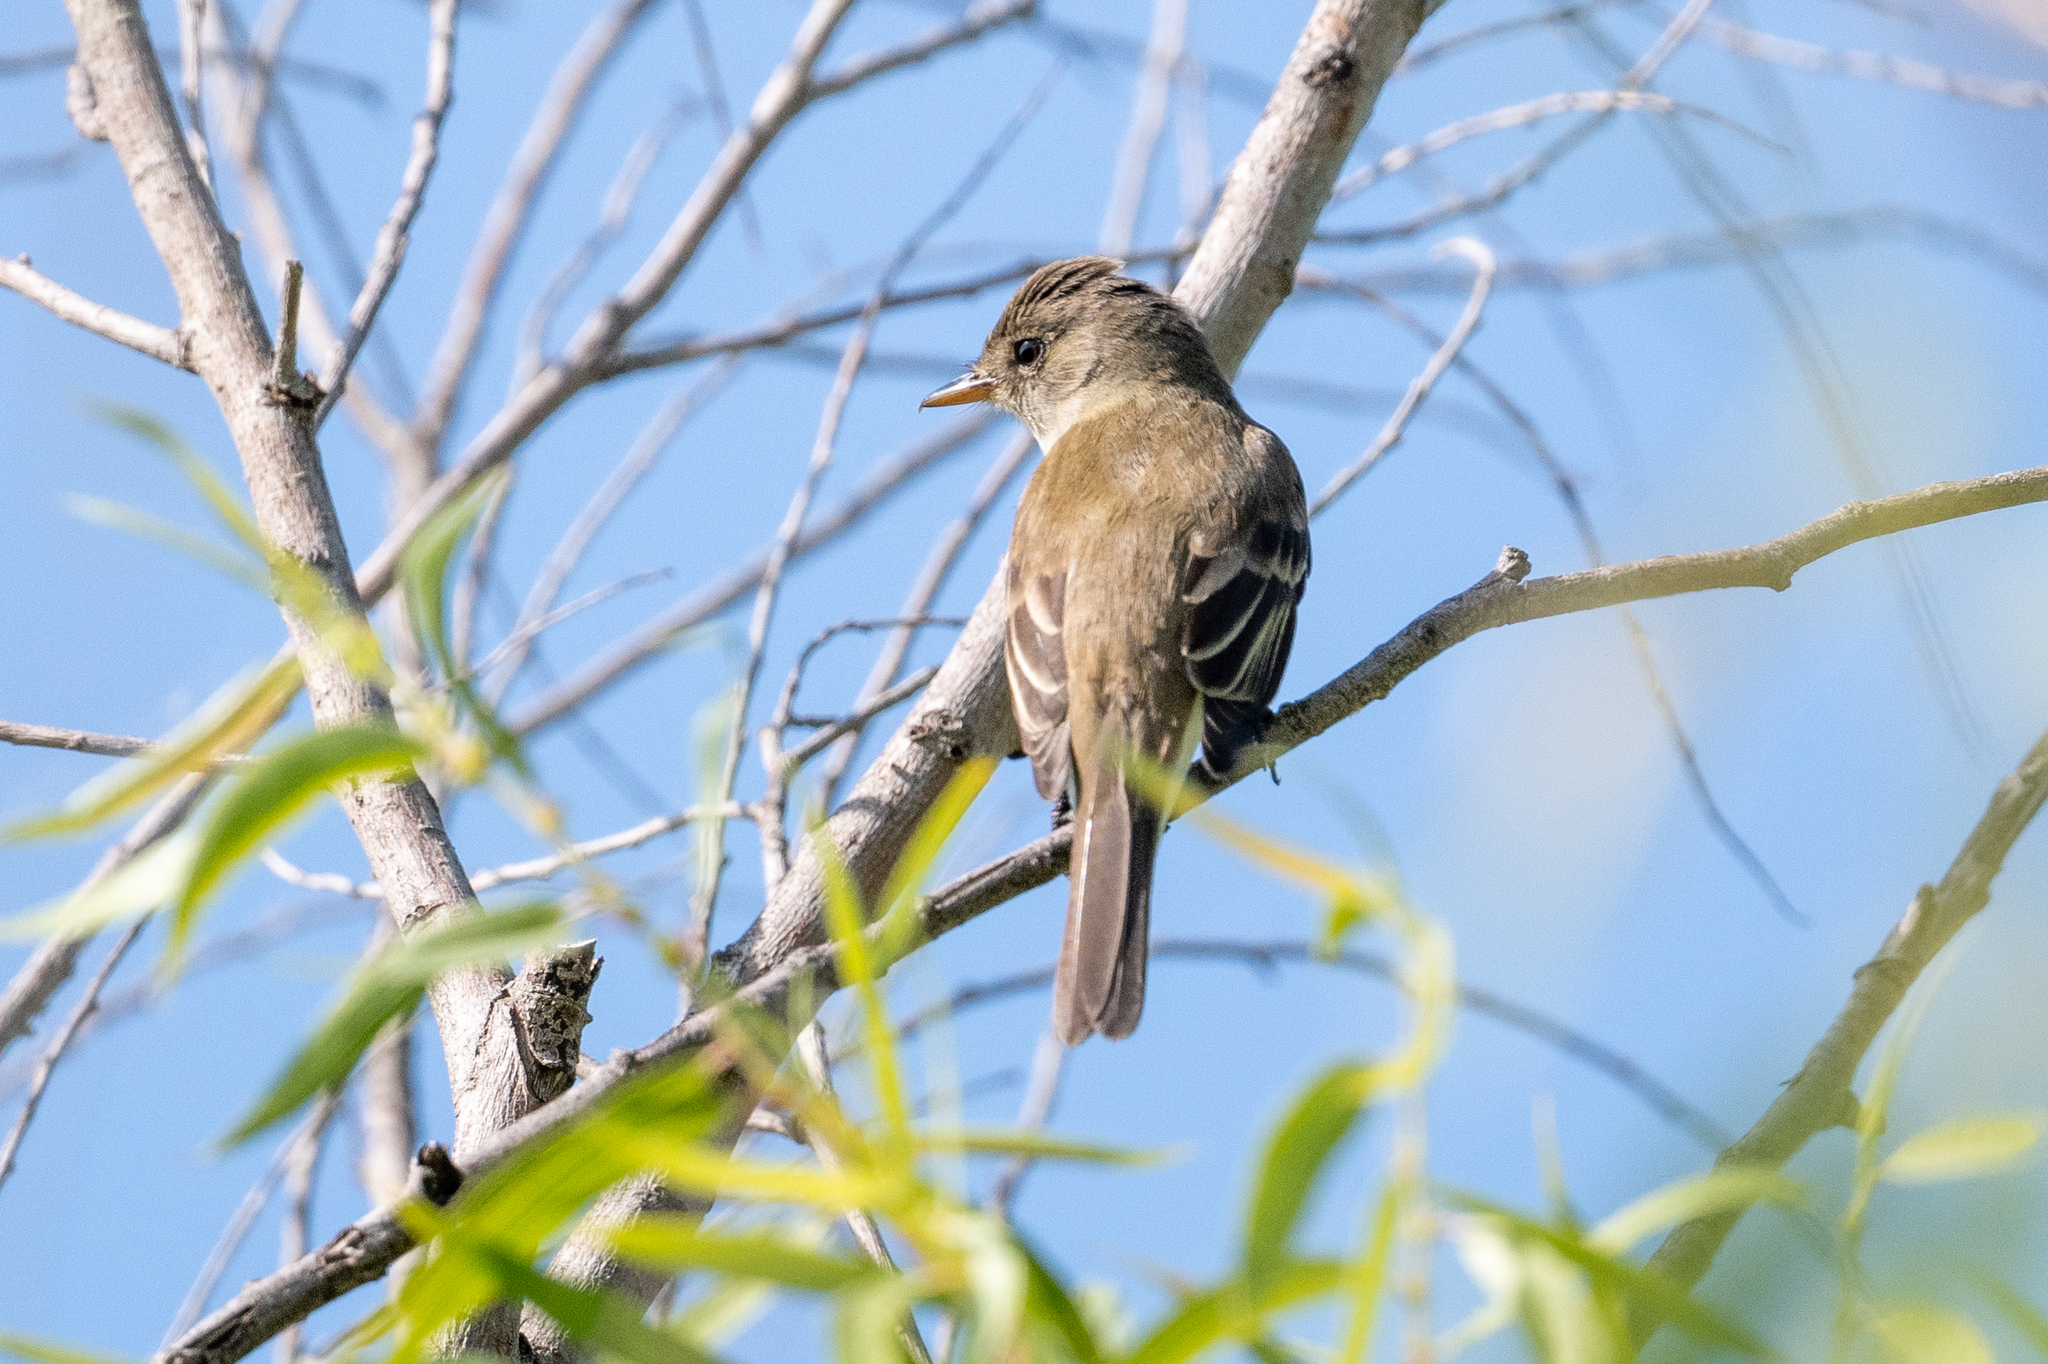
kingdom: Animalia
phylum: Chordata
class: Aves
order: Passeriformes
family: Tyrannidae
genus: Empidonax
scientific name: Empidonax traillii
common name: Willow flycatcher
